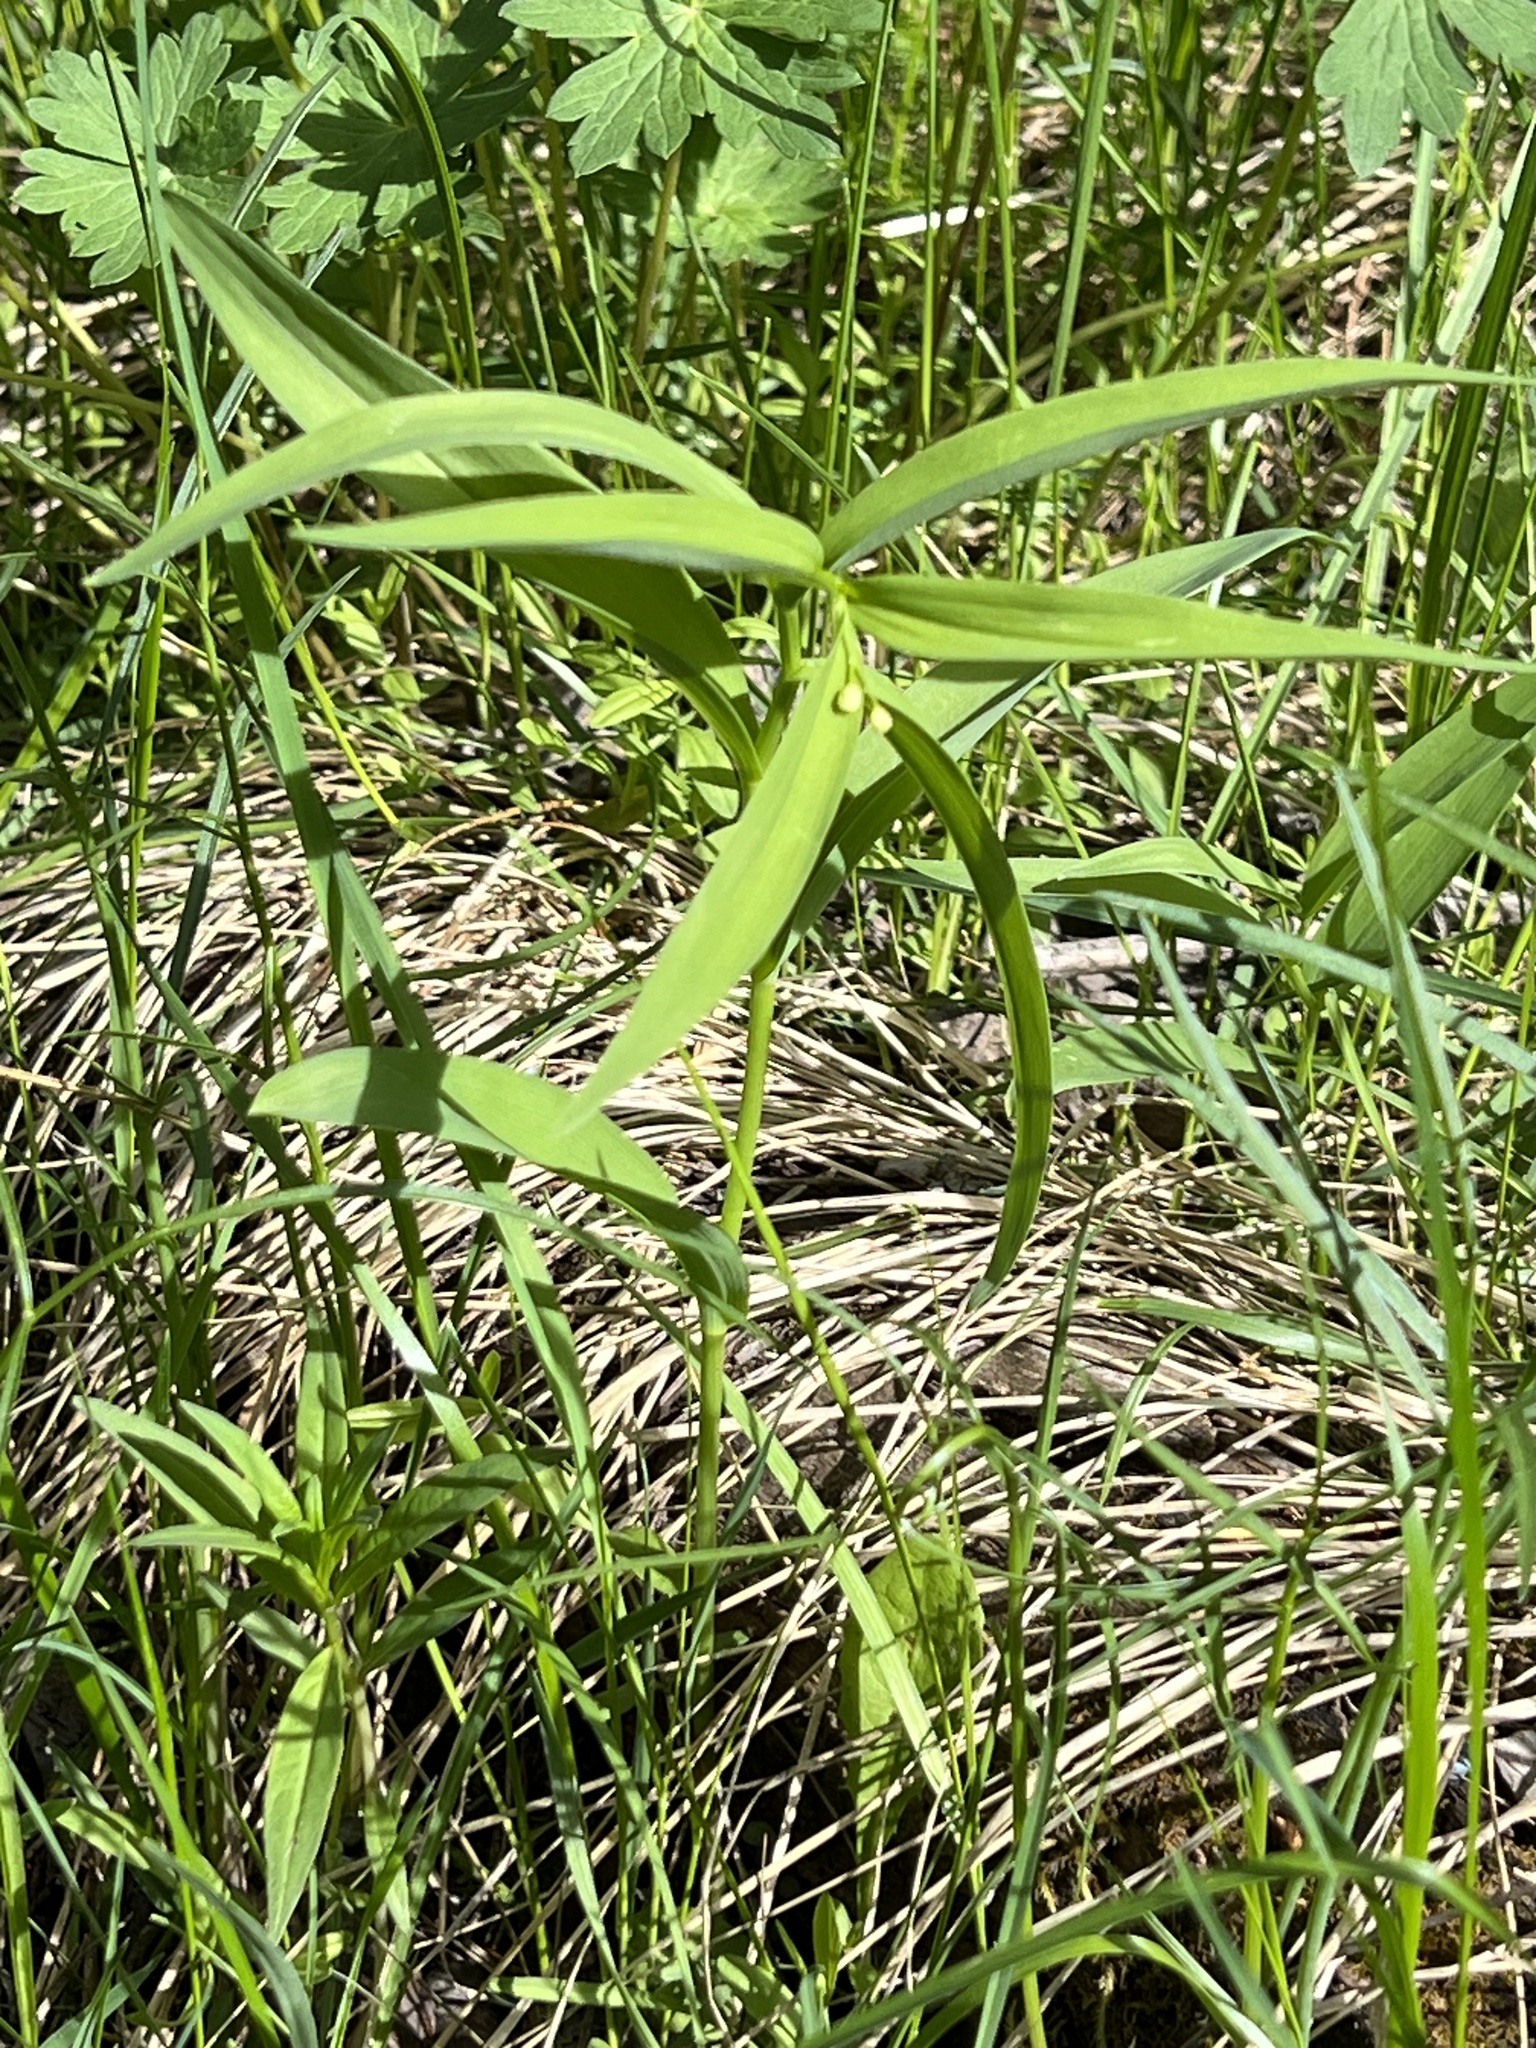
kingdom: Plantae
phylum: Tracheophyta
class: Liliopsida
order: Asparagales
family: Asparagaceae
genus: Maianthemum
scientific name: Maianthemum stellatum
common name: Little false solomon's seal
